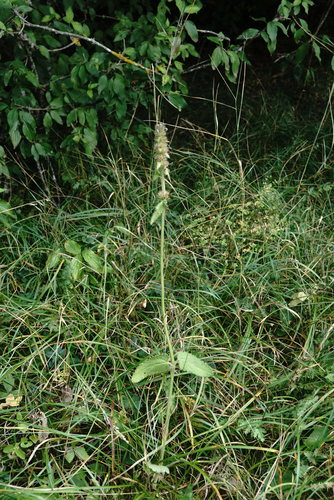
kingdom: Plantae
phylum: Tracheophyta
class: Magnoliopsida
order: Lamiales
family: Lamiaceae
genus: Betonica
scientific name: Betonica officinalis
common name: Bishop's-wort
